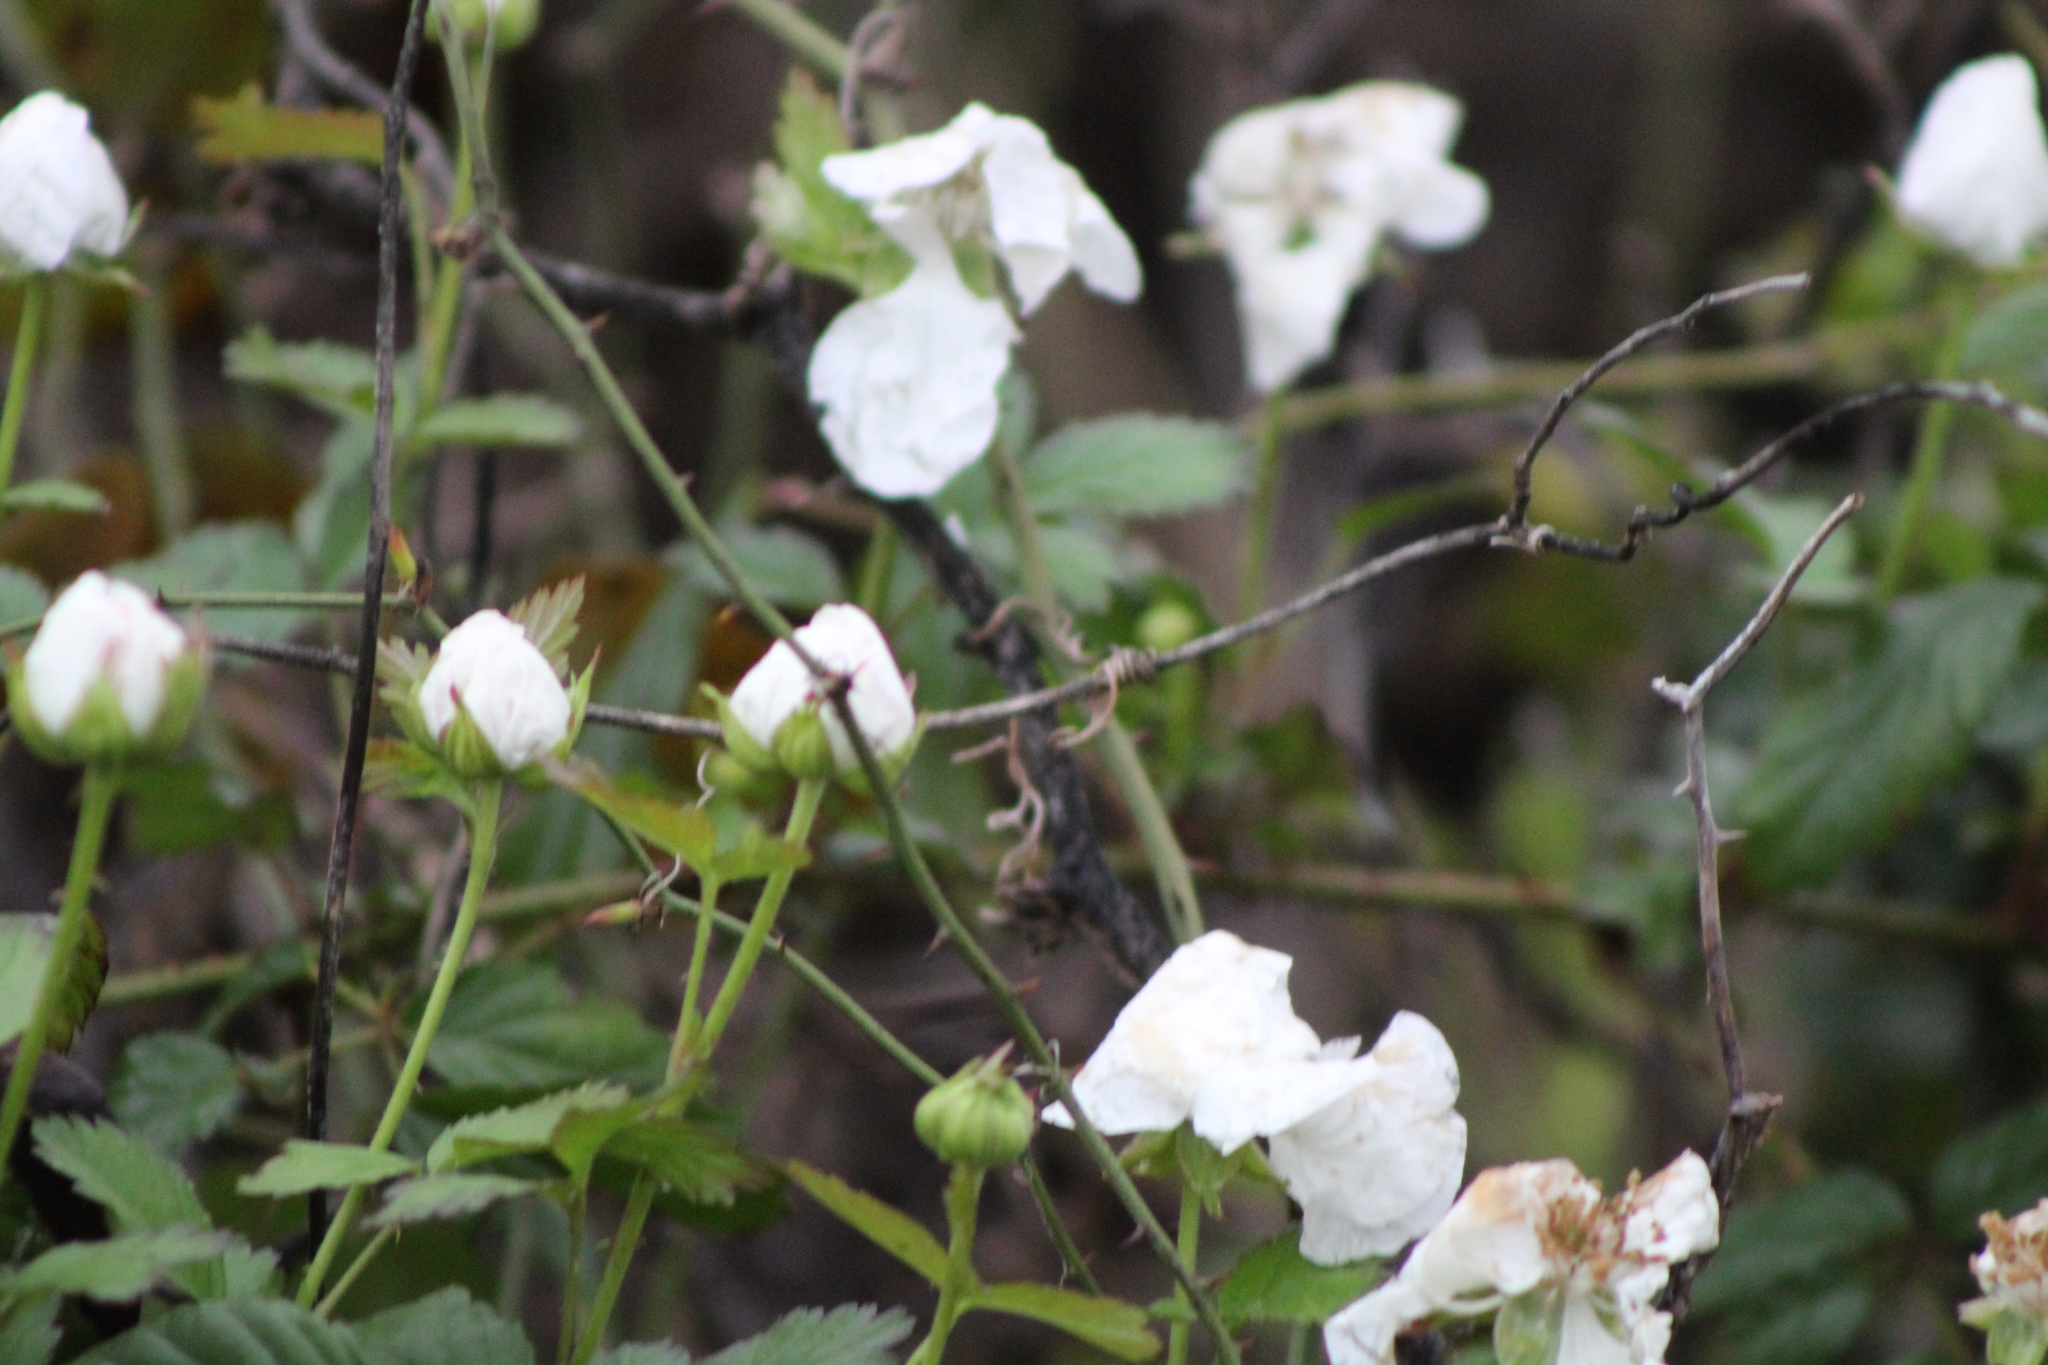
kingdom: Plantae
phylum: Tracheophyta
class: Magnoliopsida
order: Rosales
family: Rosaceae
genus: Rubus
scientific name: Rubus trivialis
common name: Southern dewberry
